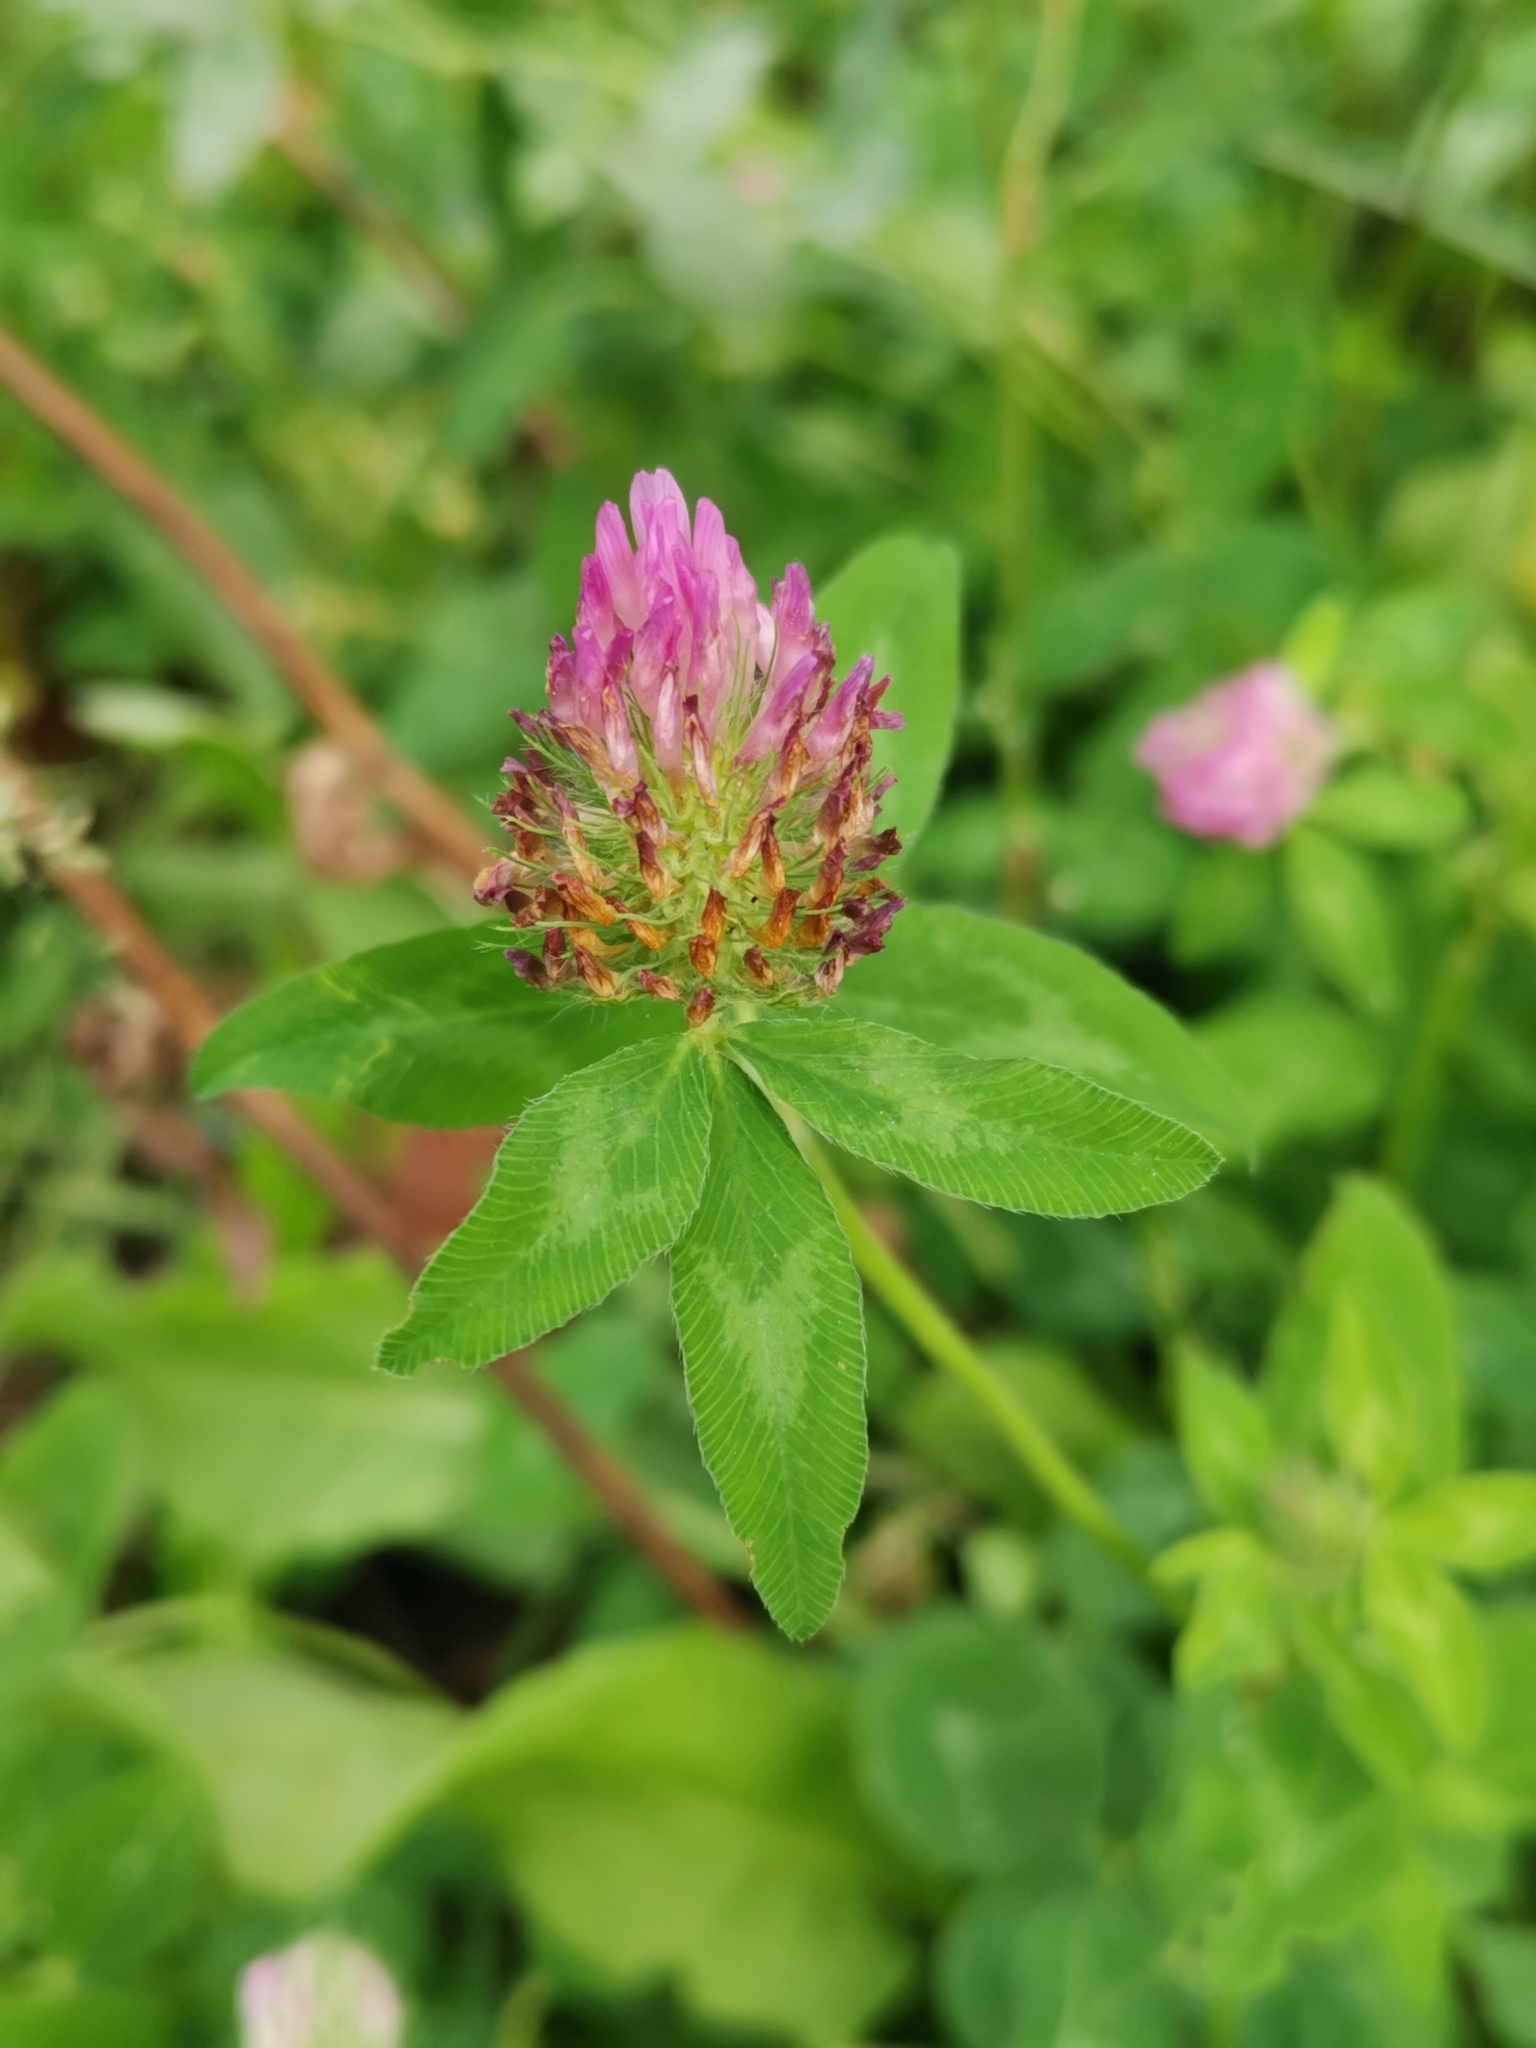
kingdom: Plantae
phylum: Tracheophyta
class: Magnoliopsida
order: Fabales
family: Fabaceae
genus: Trifolium
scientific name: Trifolium pratense
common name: Red clover
